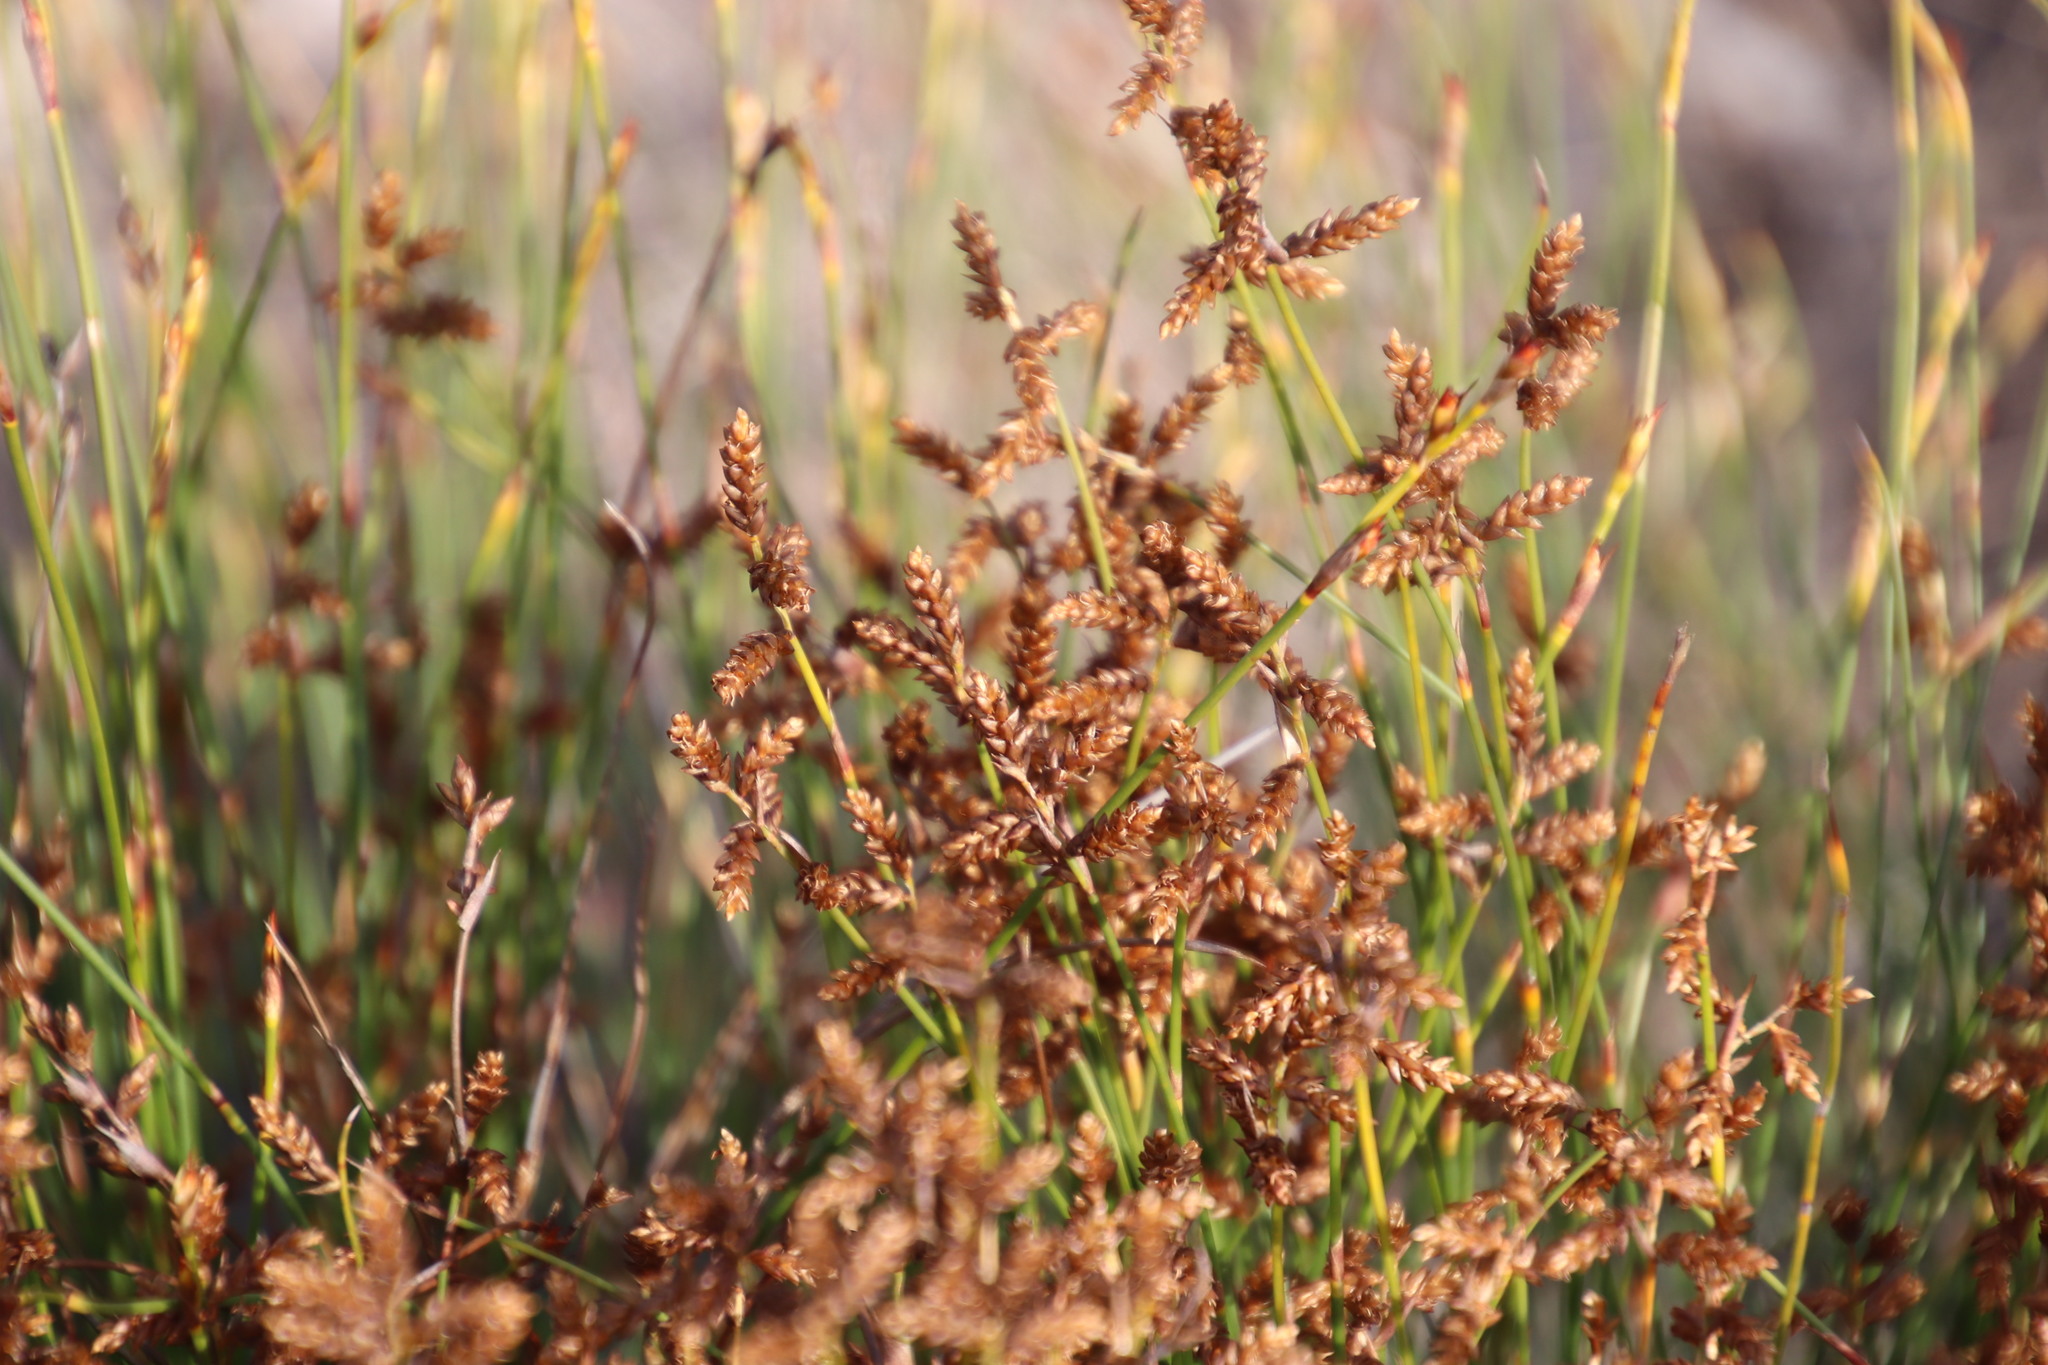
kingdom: Plantae
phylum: Tracheophyta
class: Liliopsida
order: Poales
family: Restionaceae
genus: Mastersiella
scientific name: Mastersiella digitata
